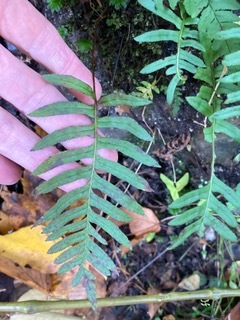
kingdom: Plantae
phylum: Tracheophyta
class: Polypodiopsida
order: Polypodiales
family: Polypodiaceae
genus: Polypodium
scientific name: Polypodium appalachianum
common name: Appalachian polypody
